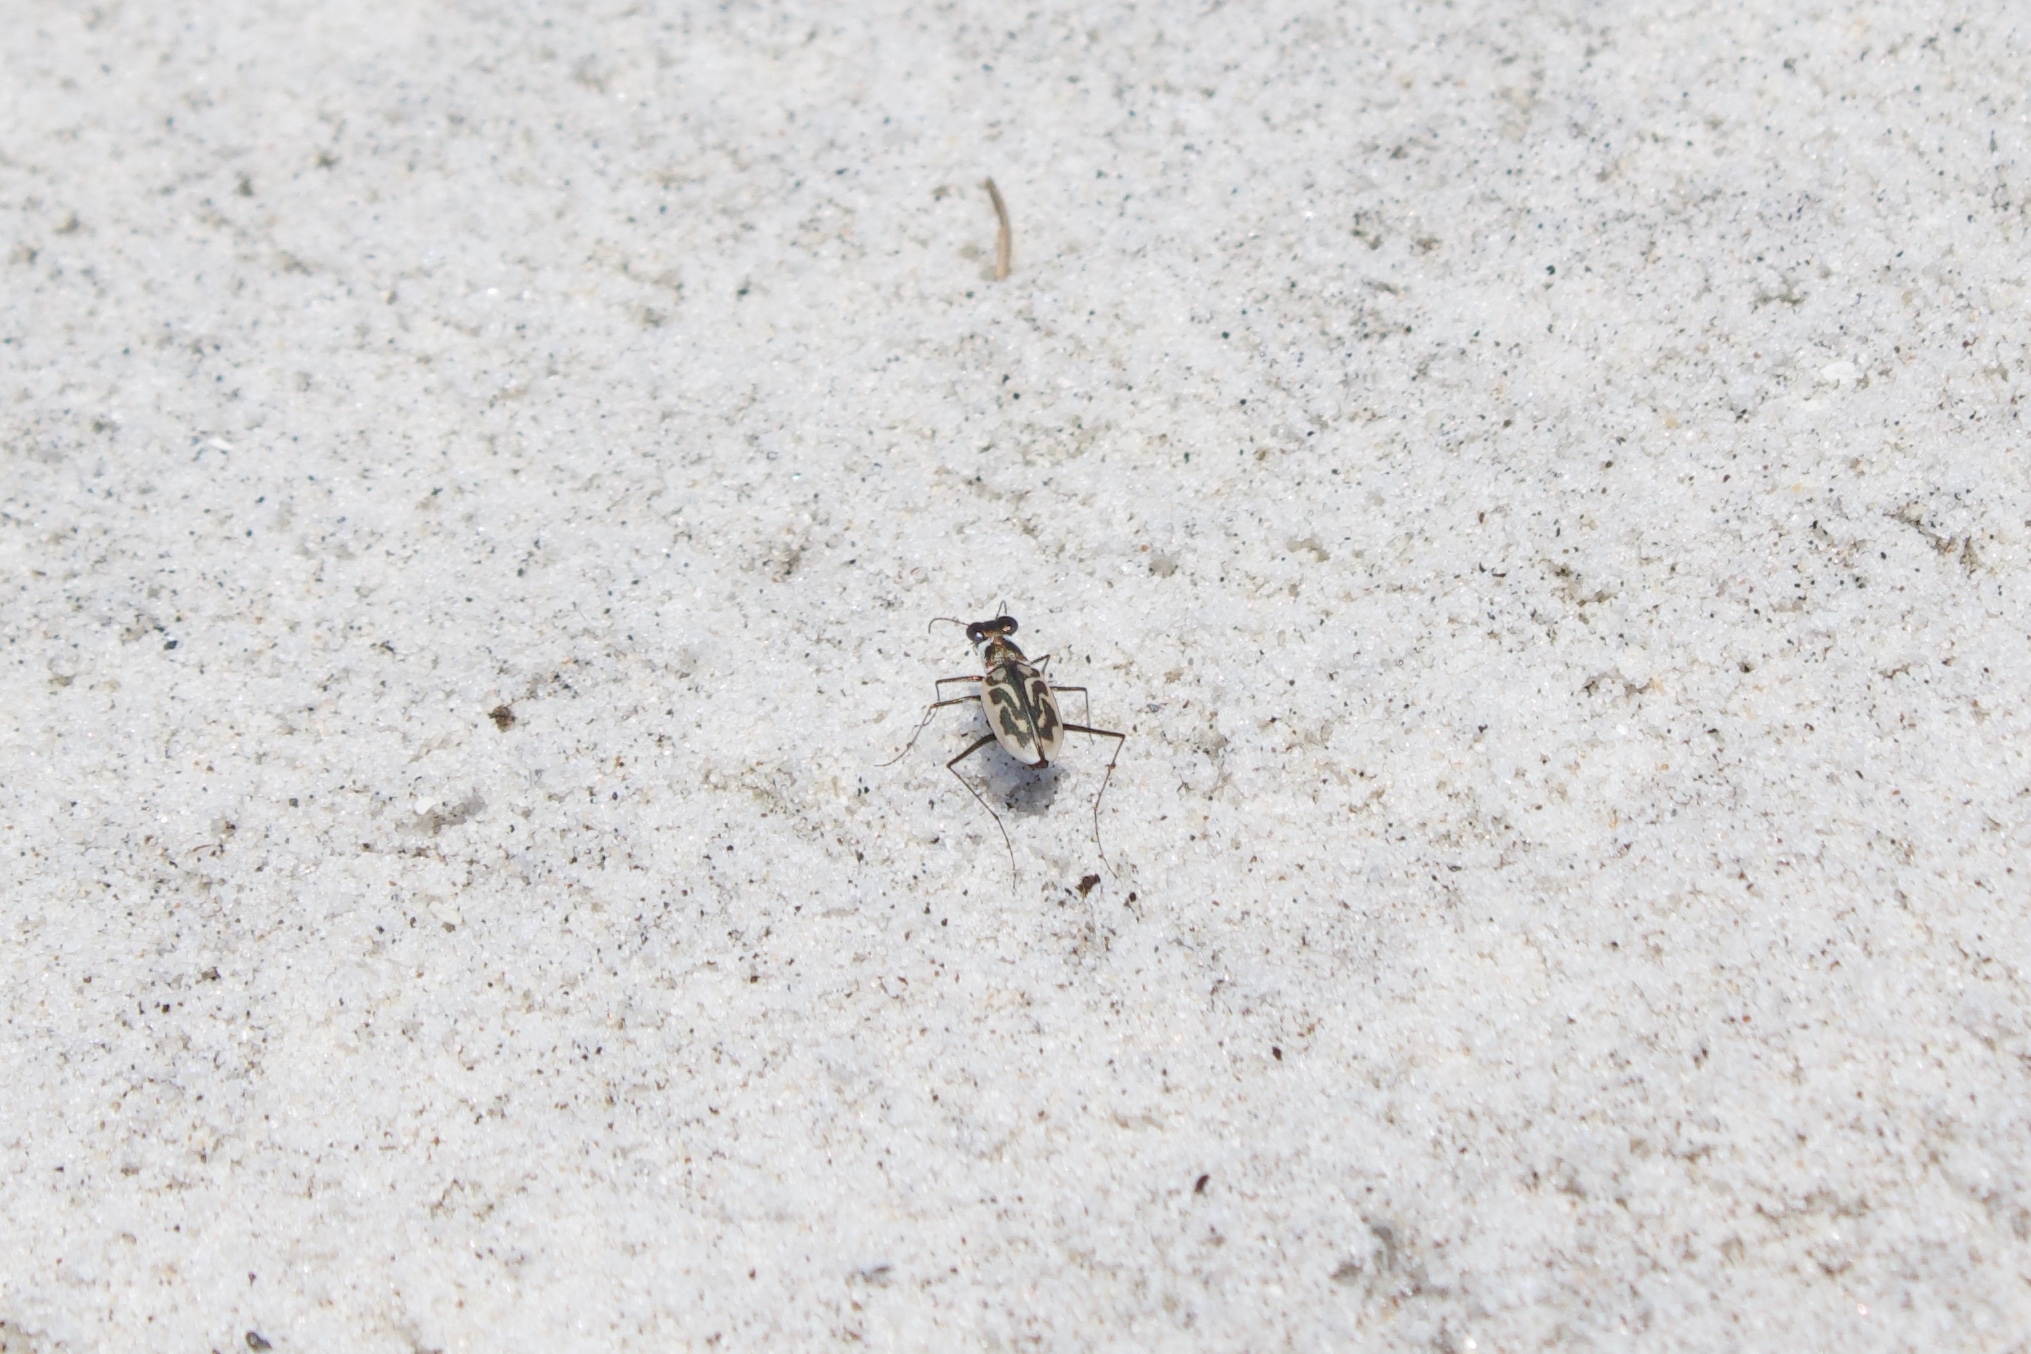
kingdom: Animalia
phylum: Arthropoda
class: Insecta
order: Coleoptera
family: Carabidae
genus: Habroscelimorpha
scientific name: Habroscelimorpha dorsalis
